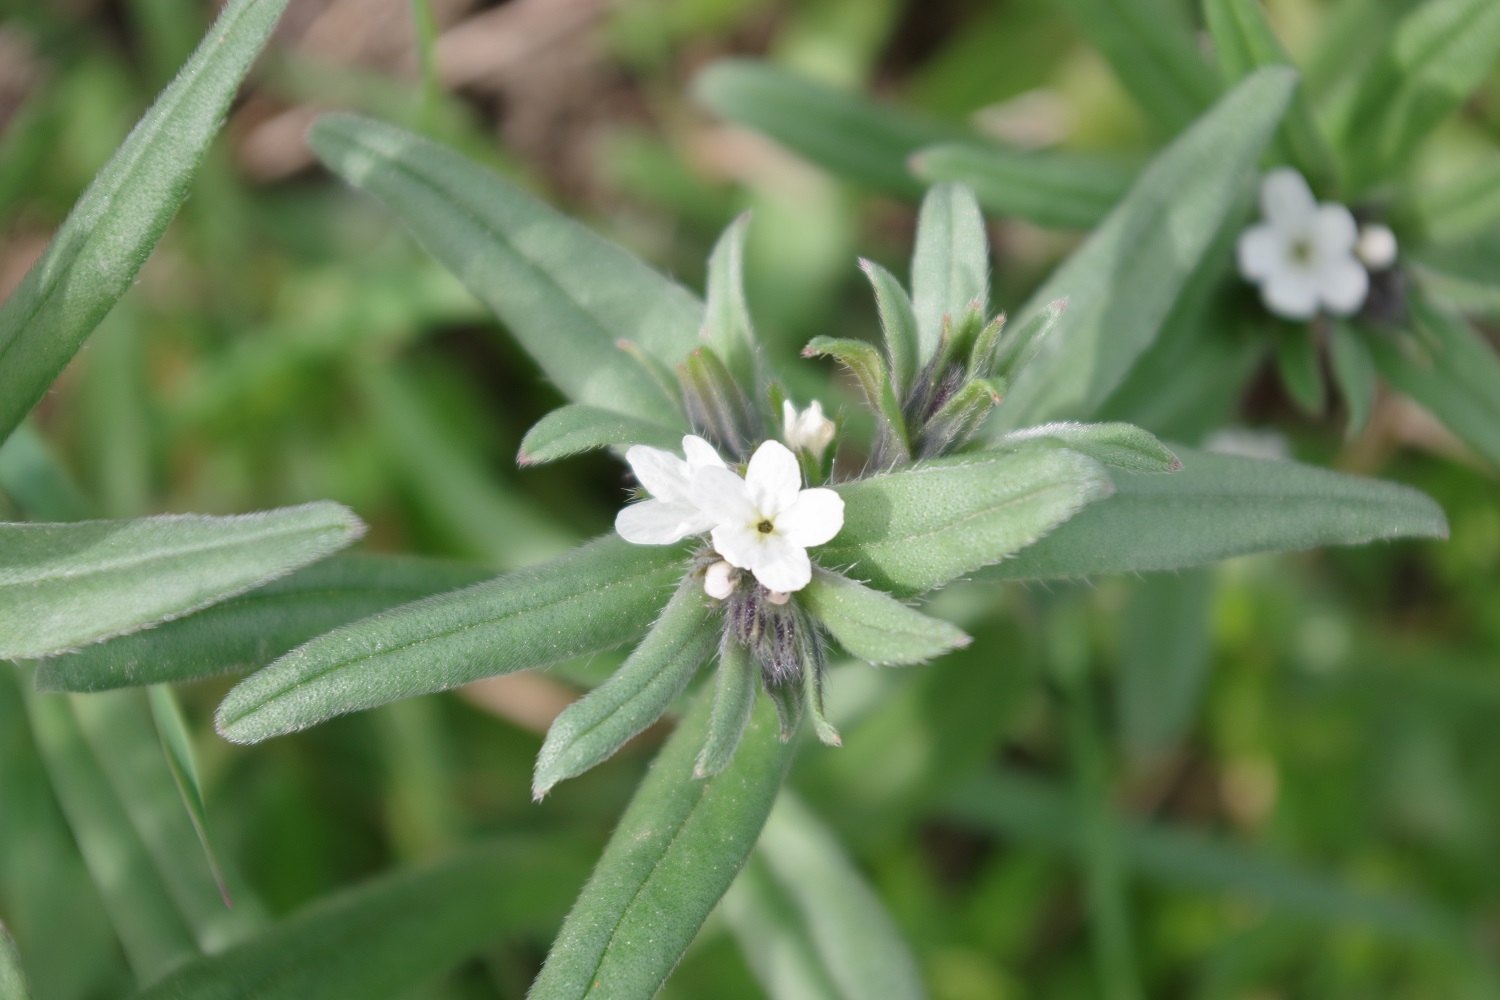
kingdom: Plantae
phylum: Tracheophyta
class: Magnoliopsida
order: Boraginales
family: Boraginaceae
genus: Buglossoides
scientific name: Buglossoides arvensis
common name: Corn gromwell
